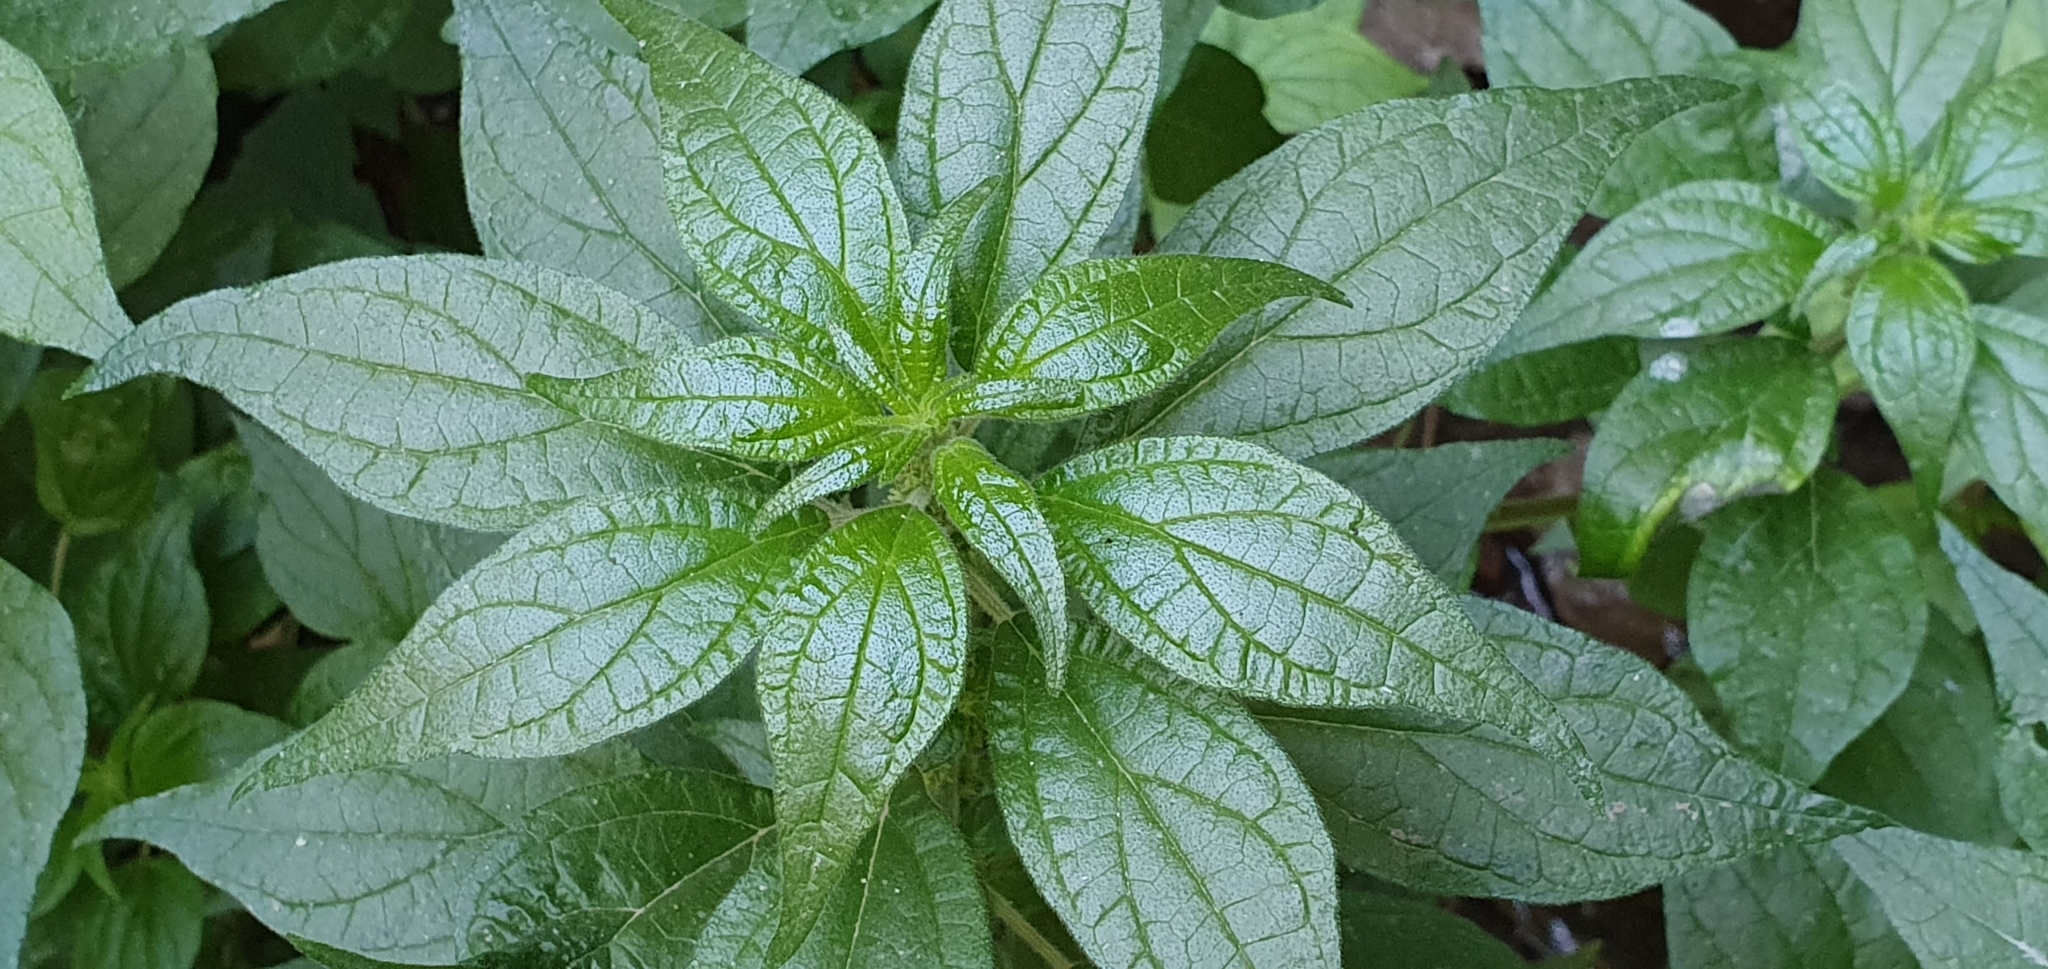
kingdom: Plantae
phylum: Tracheophyta
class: Magnoliopsida
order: Rosales
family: Urticaceae
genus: Parietaria
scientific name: Parietaria judaica
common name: Pellitory-of-the-wall
